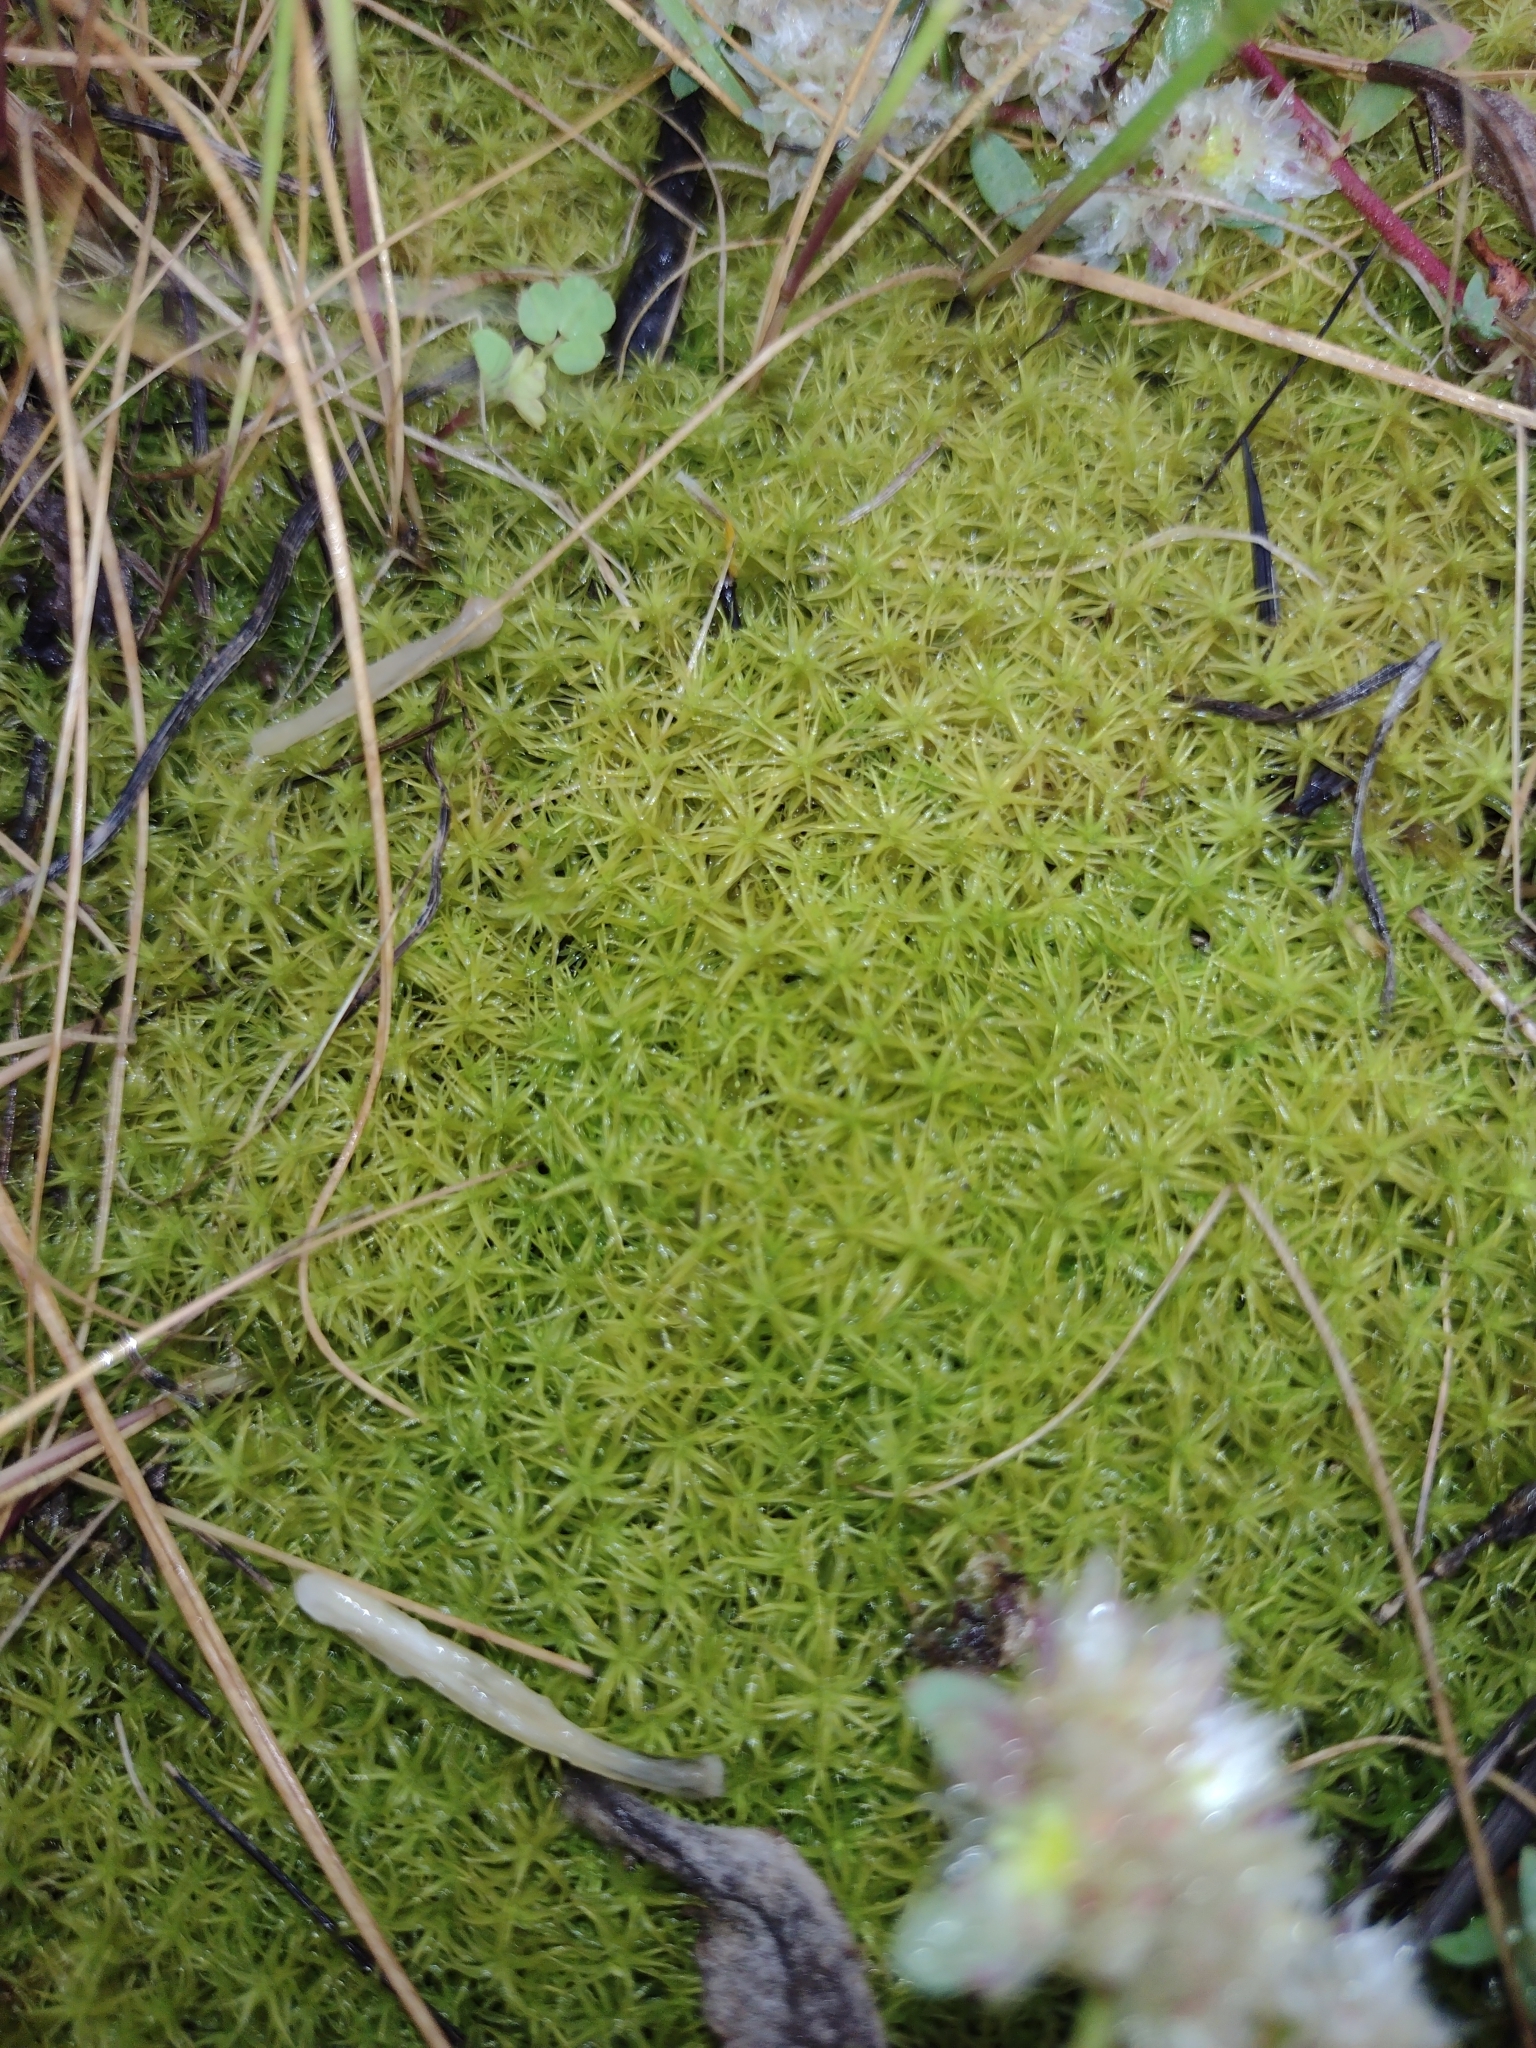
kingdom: Plantae
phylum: Bryophyta
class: Bryopsida
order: Pottiales
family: Pottiaceae
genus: Pleurochaete
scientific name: Pleurochaete squarrosa
